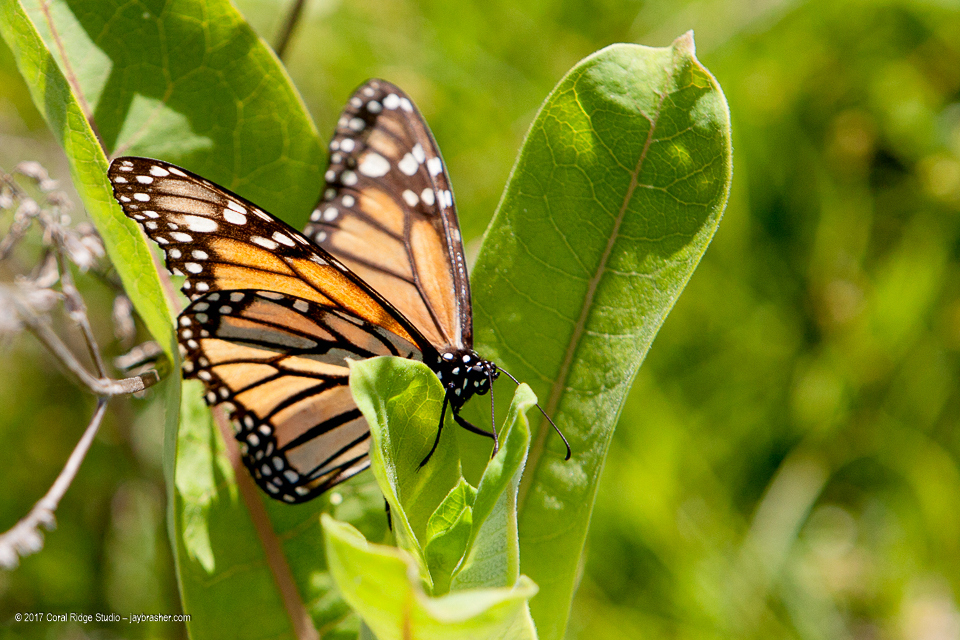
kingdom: Animalia
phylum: Arthropoda
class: Insecta
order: Lepidoptera
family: Nymphalidae
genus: Danaus
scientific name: Danaus plexippus
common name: Monarch
